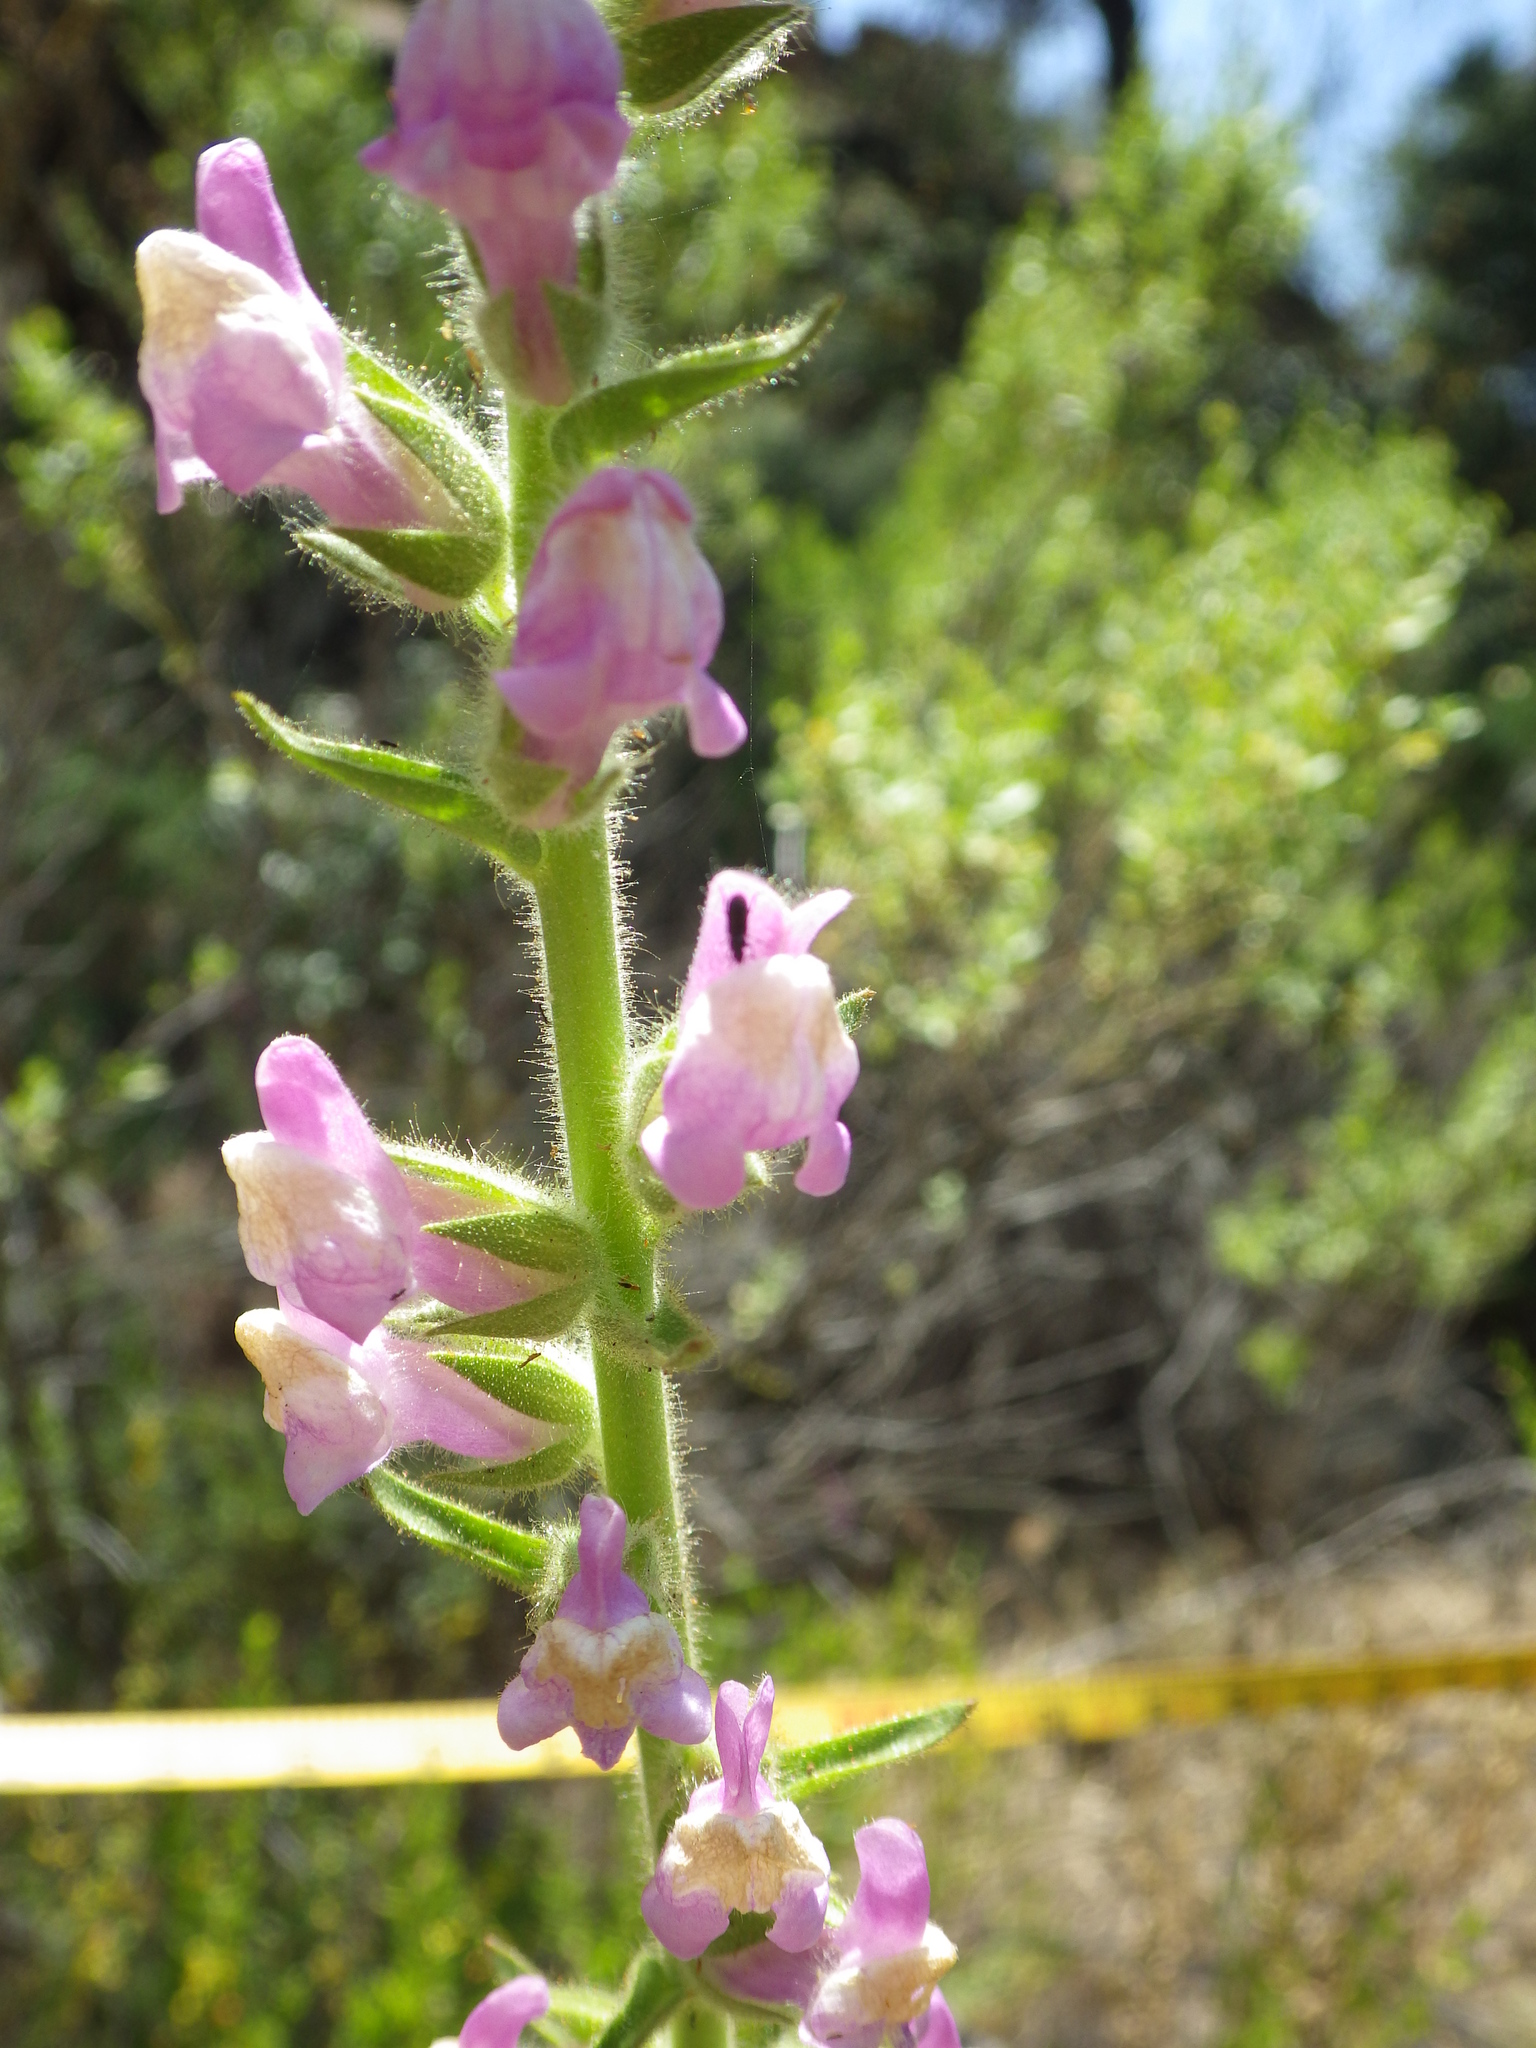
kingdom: Plantae
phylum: Tracheophyta
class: Magnoliopsida
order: Lamiales
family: Plantaginaceae
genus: Sairocarpus
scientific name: Sairocarpus multiflorus
